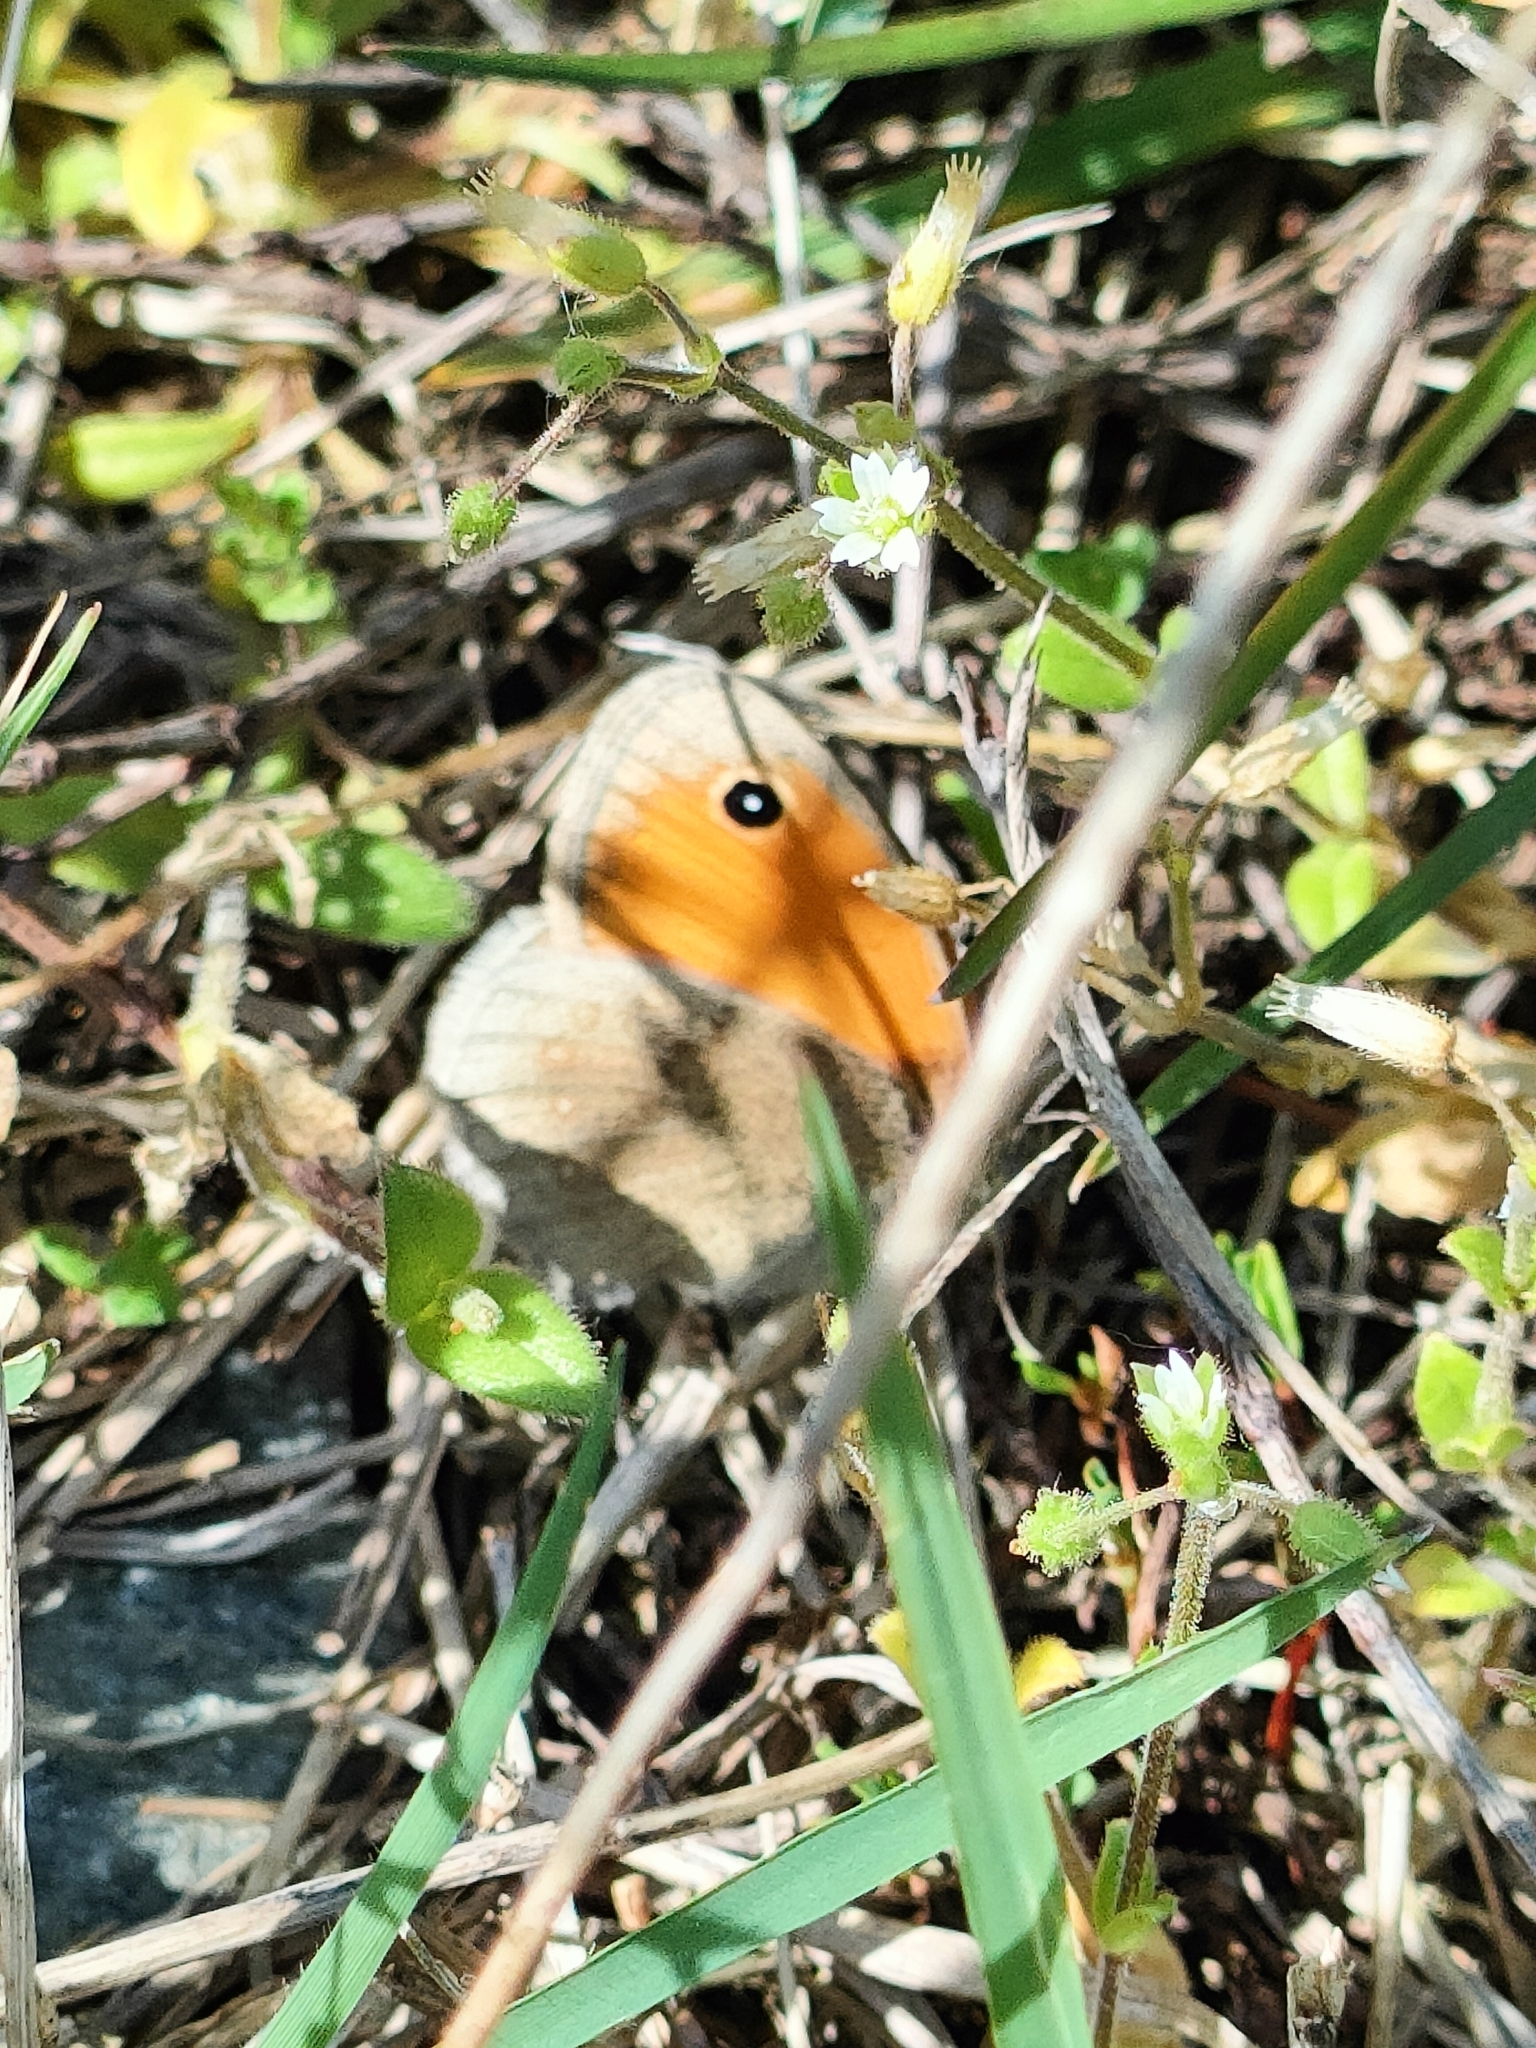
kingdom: Animalia
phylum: Arthropoda
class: Insecta
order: Lepidoptera
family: Nymphalidae
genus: Coenonympha
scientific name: Coenonympha pamphilus
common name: Small heath
